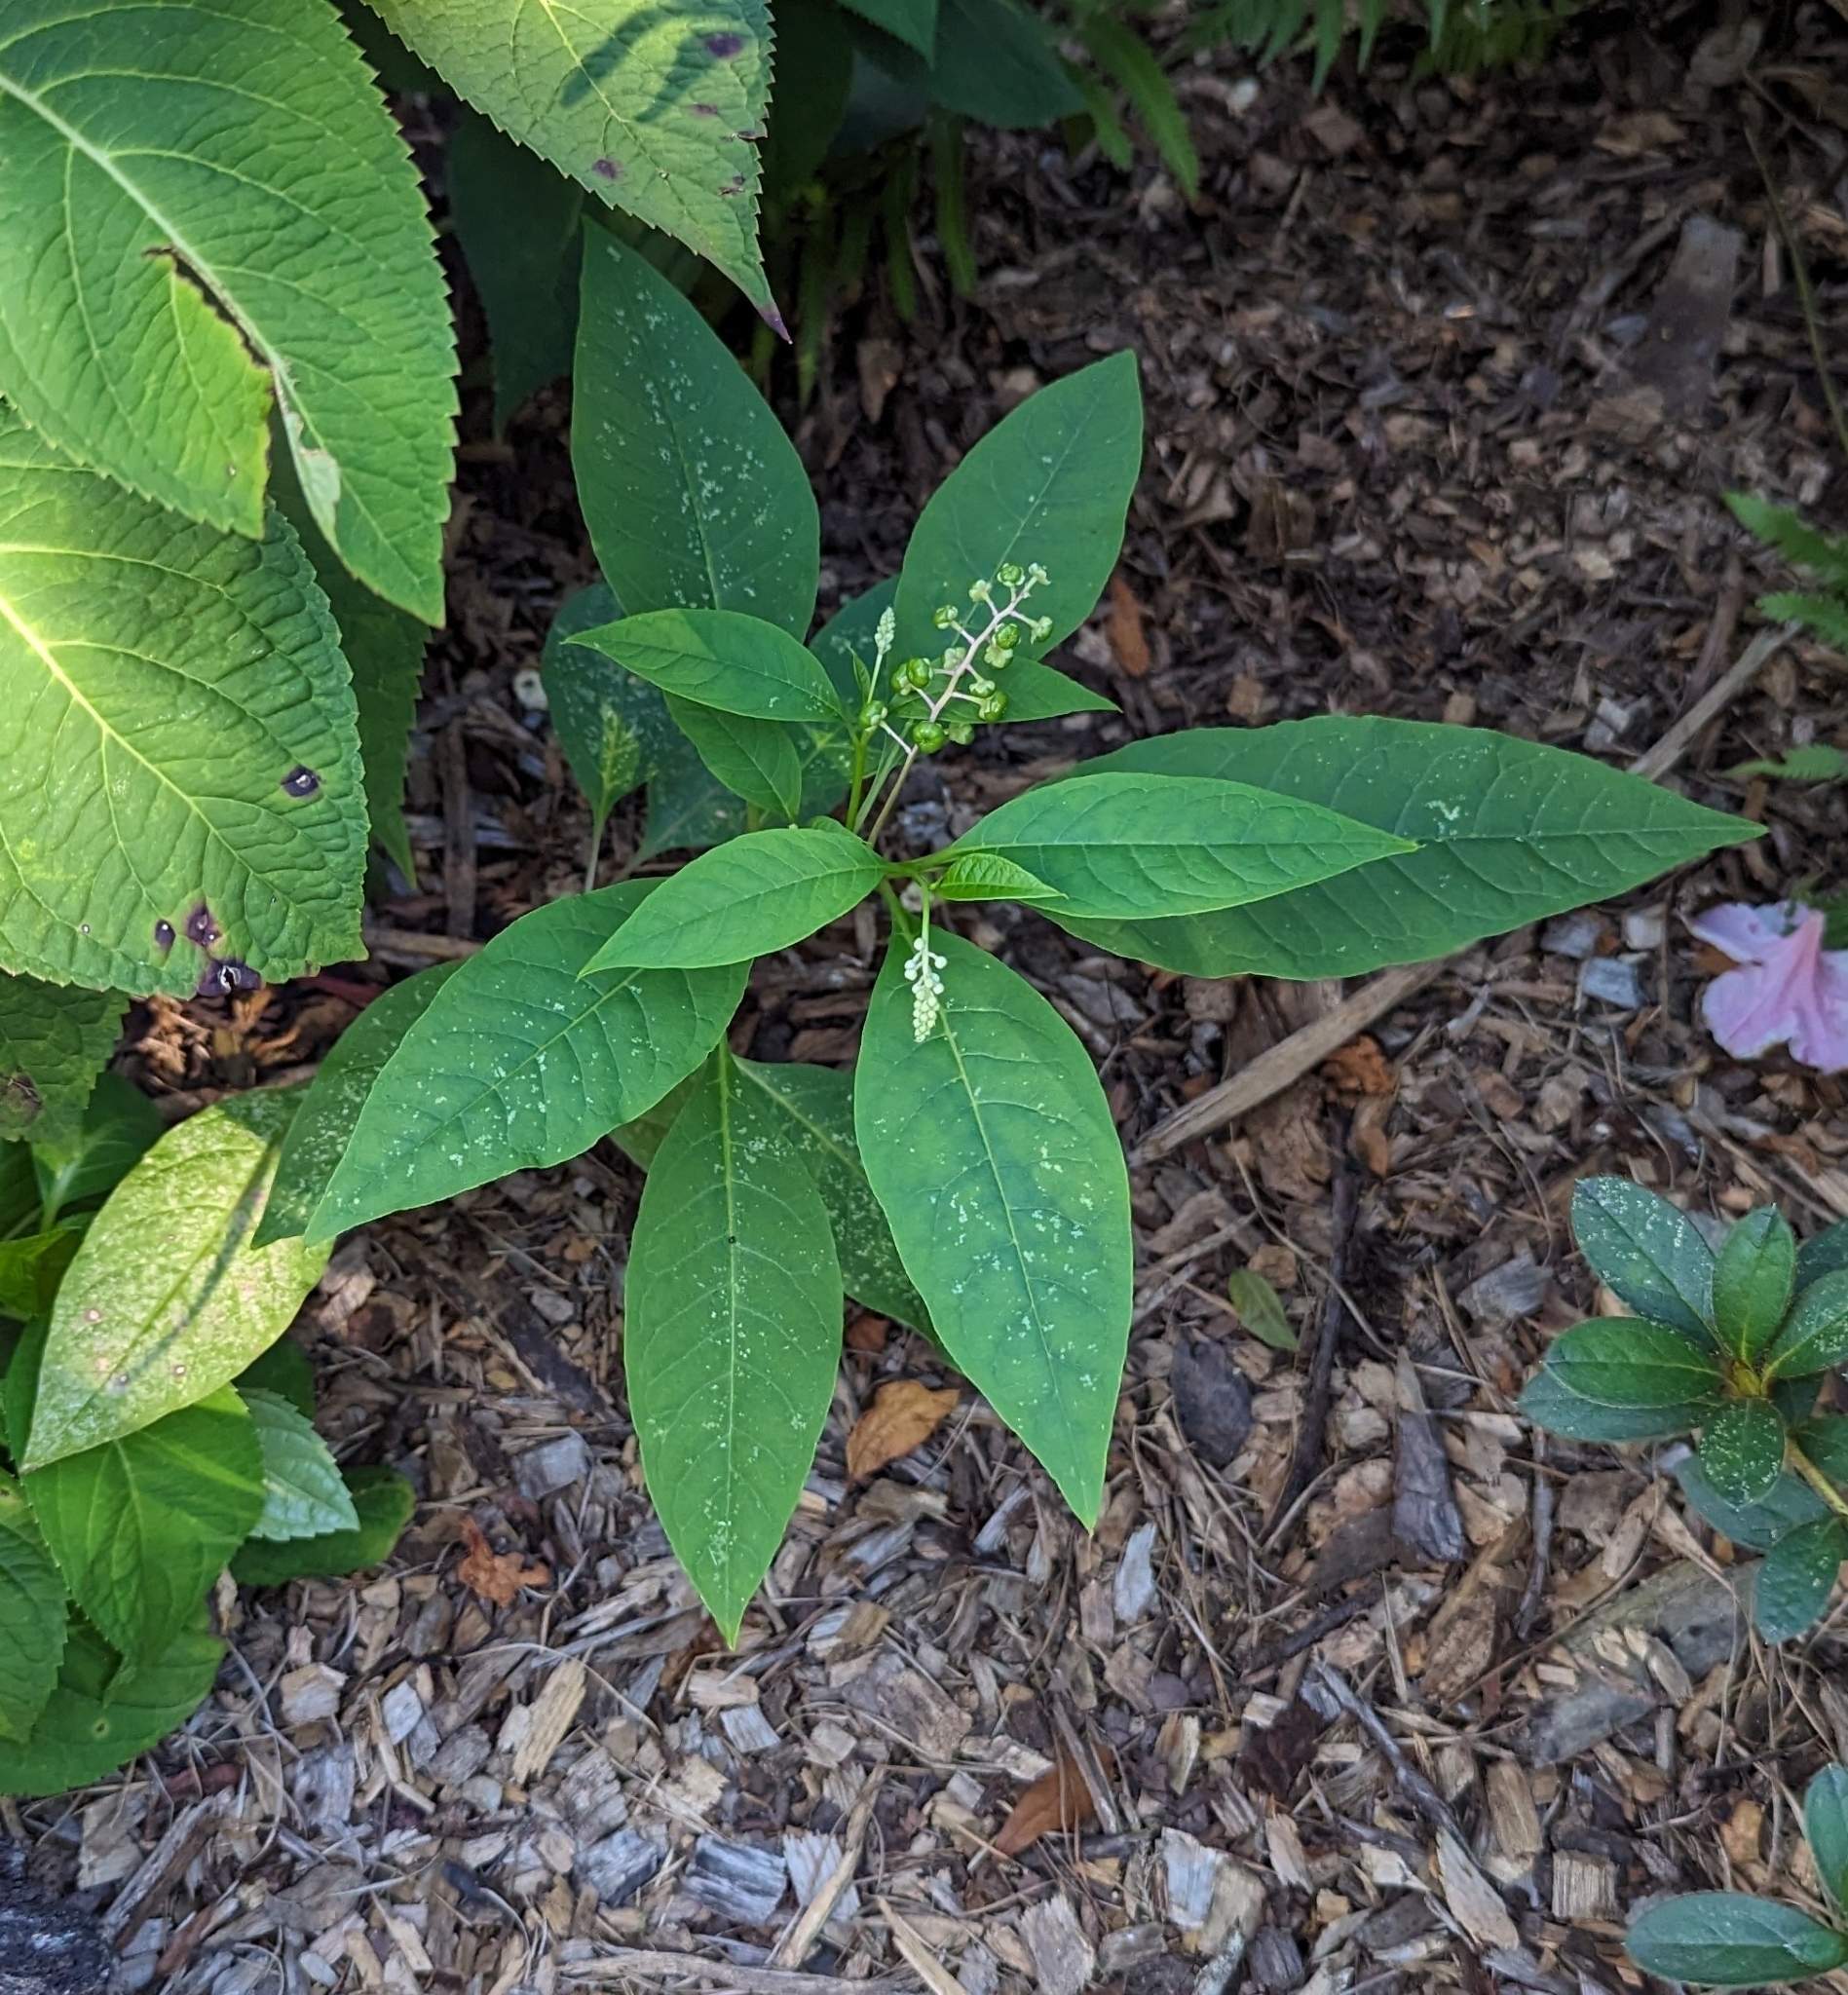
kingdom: Plantae
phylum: Tracheophyta
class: Magnoliopsida
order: Caryophyllales
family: Phytolaccaceae
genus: Phytolacca
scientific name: Phytolacca americana
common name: American pokeweed
